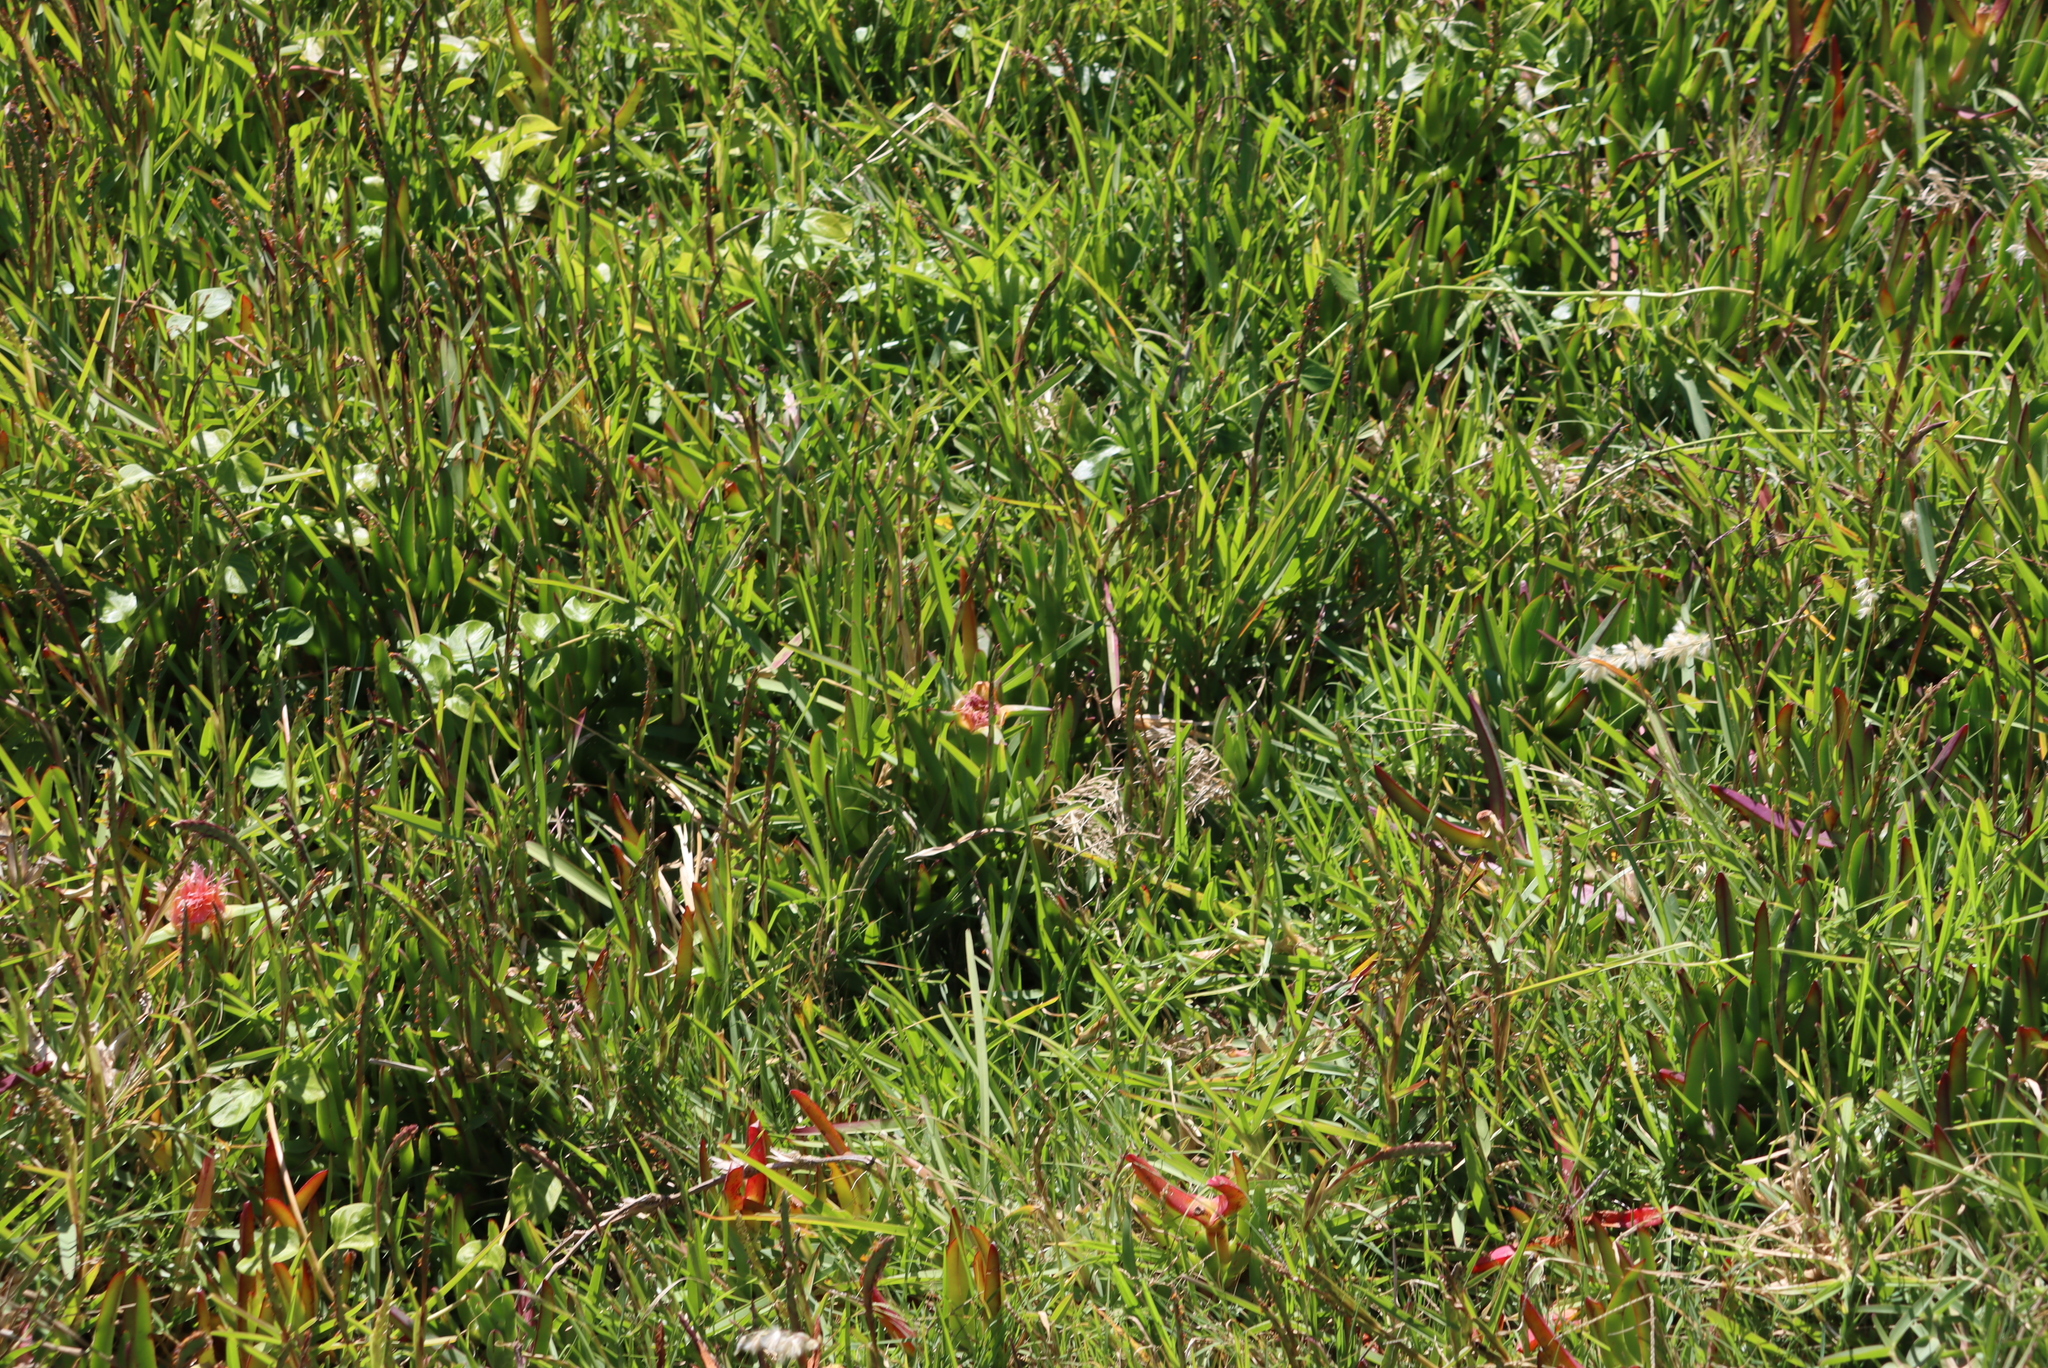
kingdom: Plantae
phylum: Tracheophyta
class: Magnoliopsida
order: Caryophyllales
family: Aizoaceae
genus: Carpobrotus
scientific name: Carpobrotus edulis
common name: Hottentot-fig
